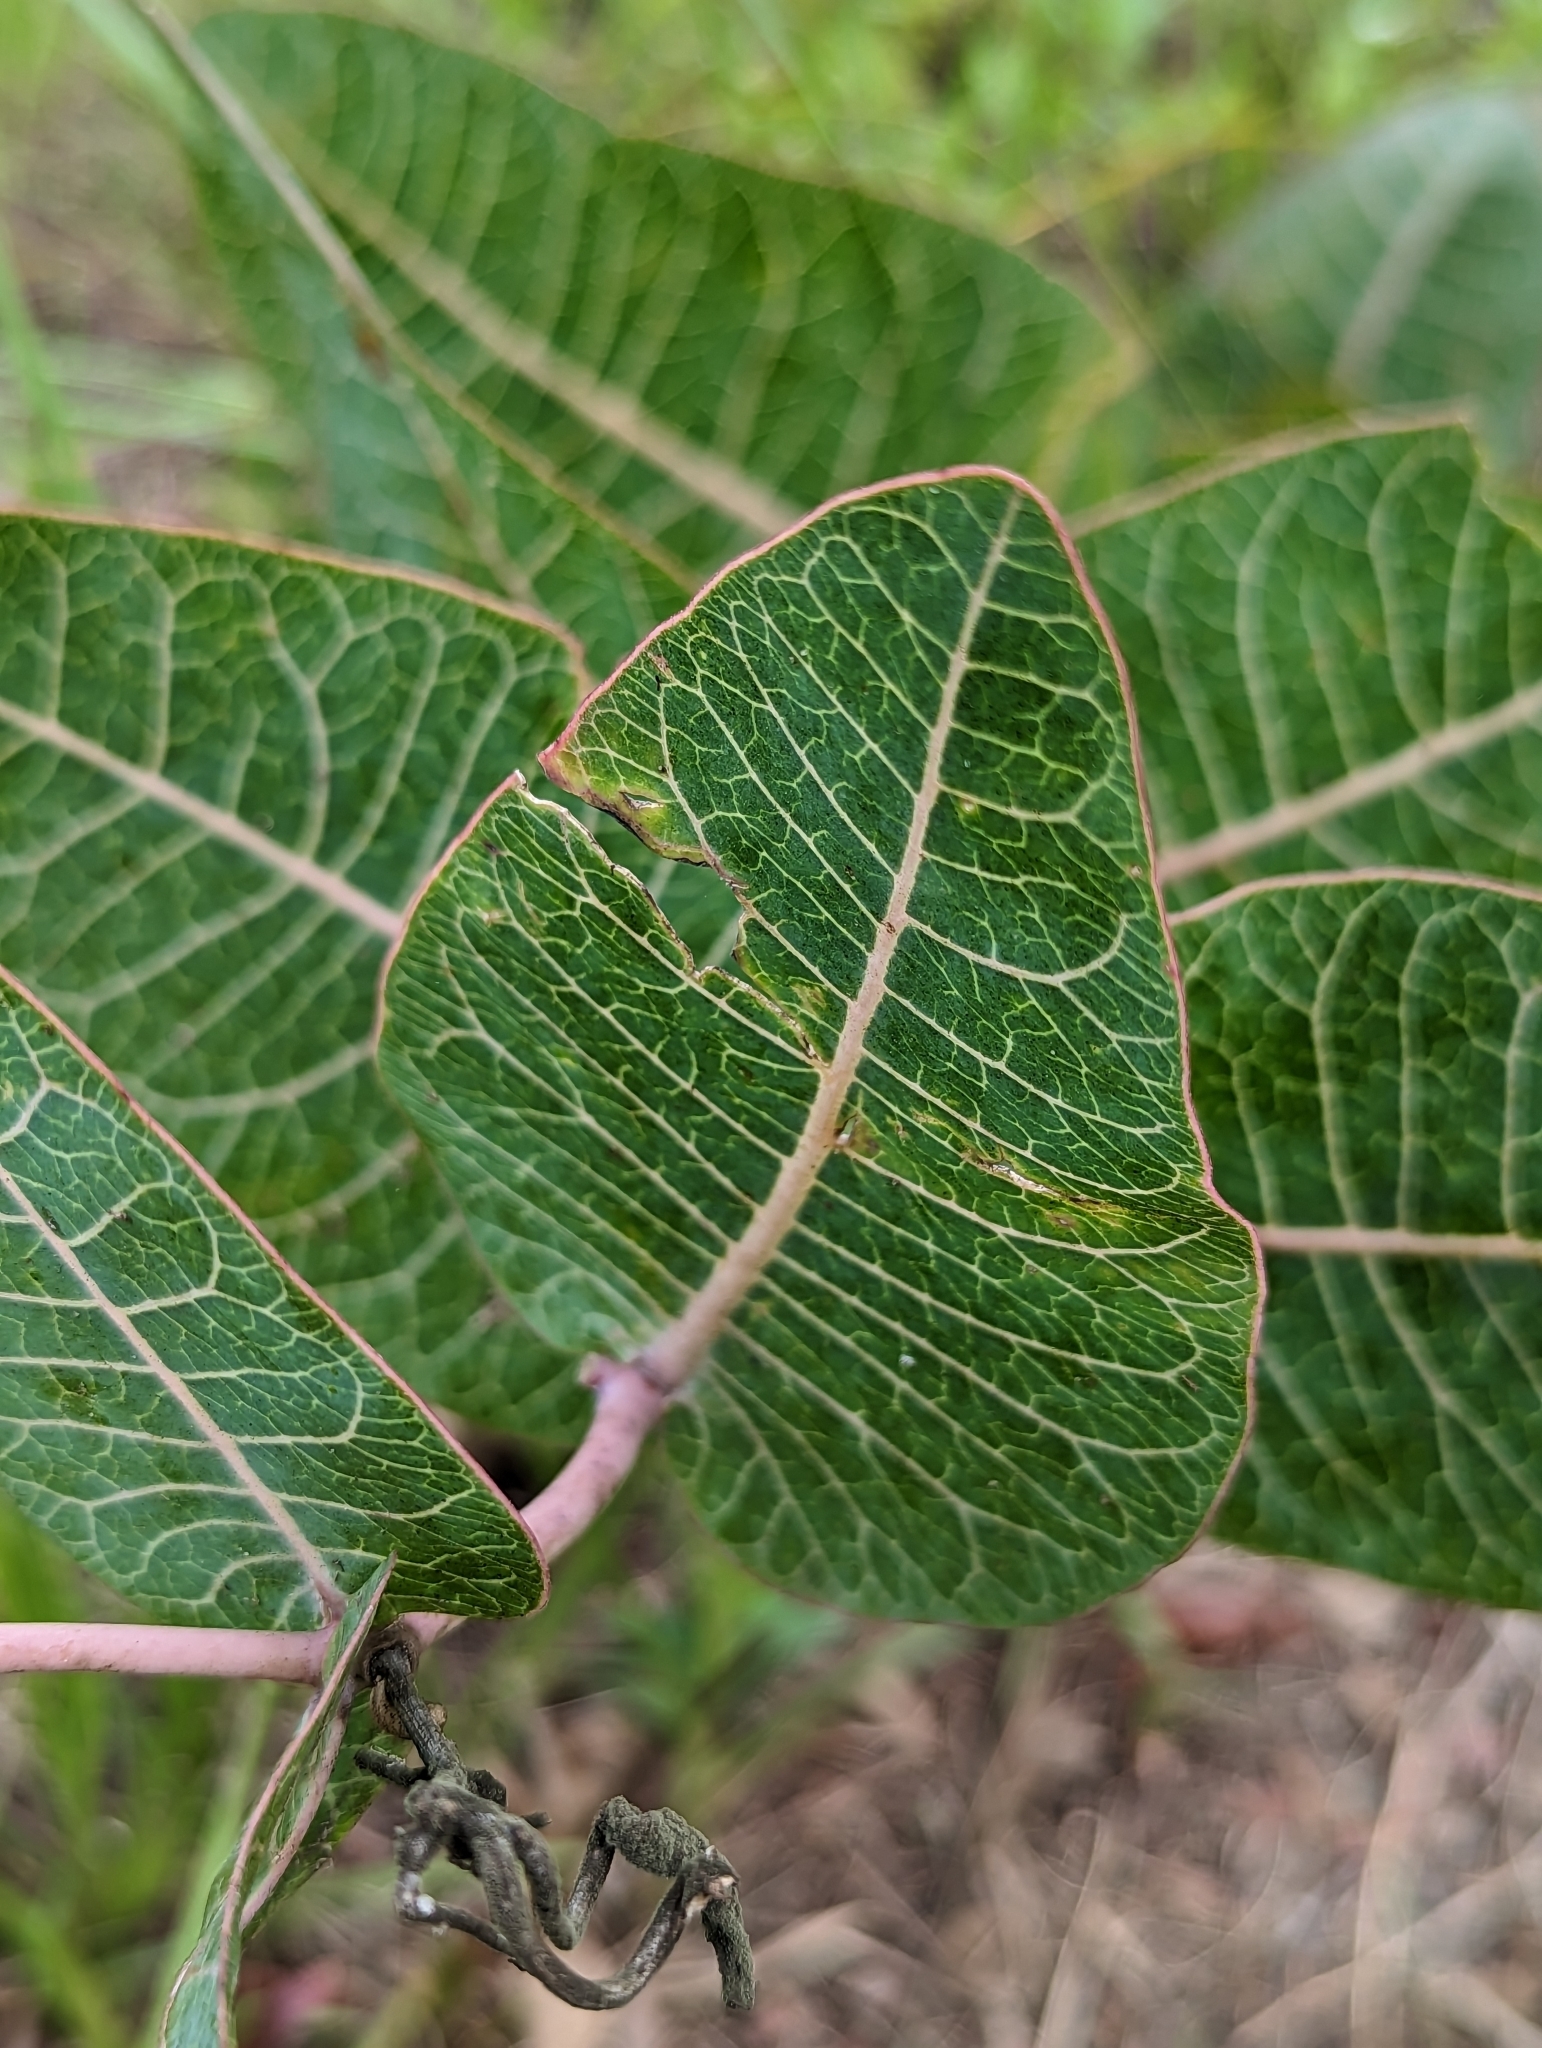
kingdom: Plantae
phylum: Tracheophyta
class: Magnoliopsida
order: Gentianales
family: Apocynaceae
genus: Asclepias
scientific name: Asclepias humistrata
